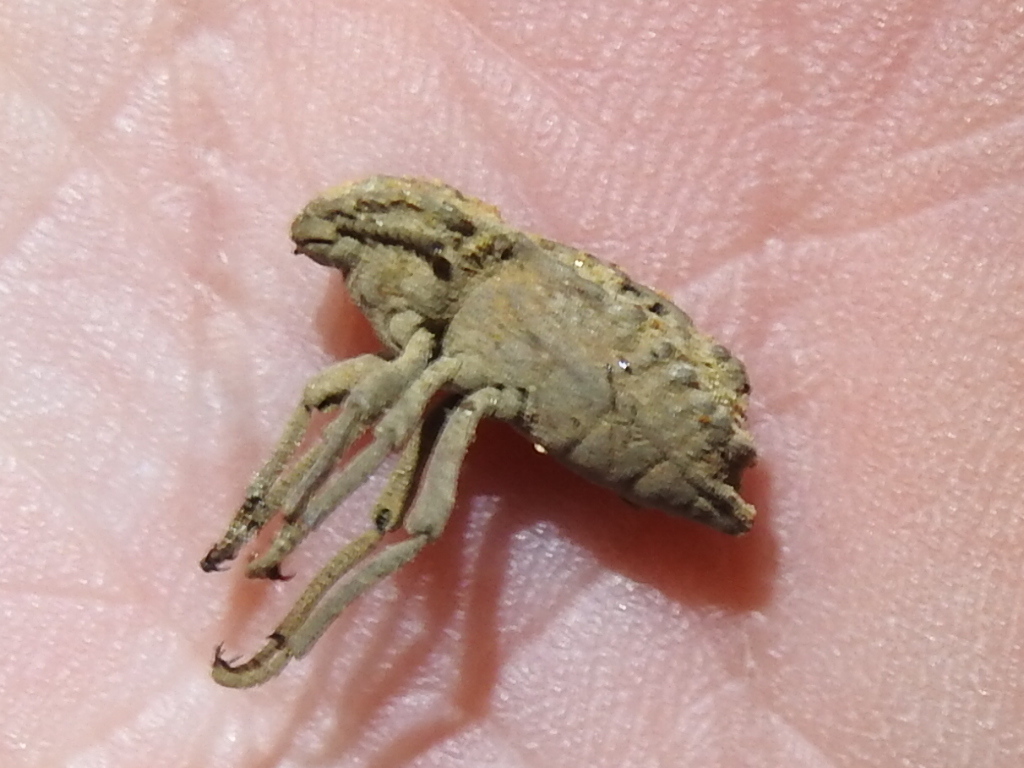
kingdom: Animalia
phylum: Arthropoda
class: Insecta
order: Coleoptera
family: Tenebrionidae
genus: Pelecyphorus
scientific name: Pelecyphorus contortus
